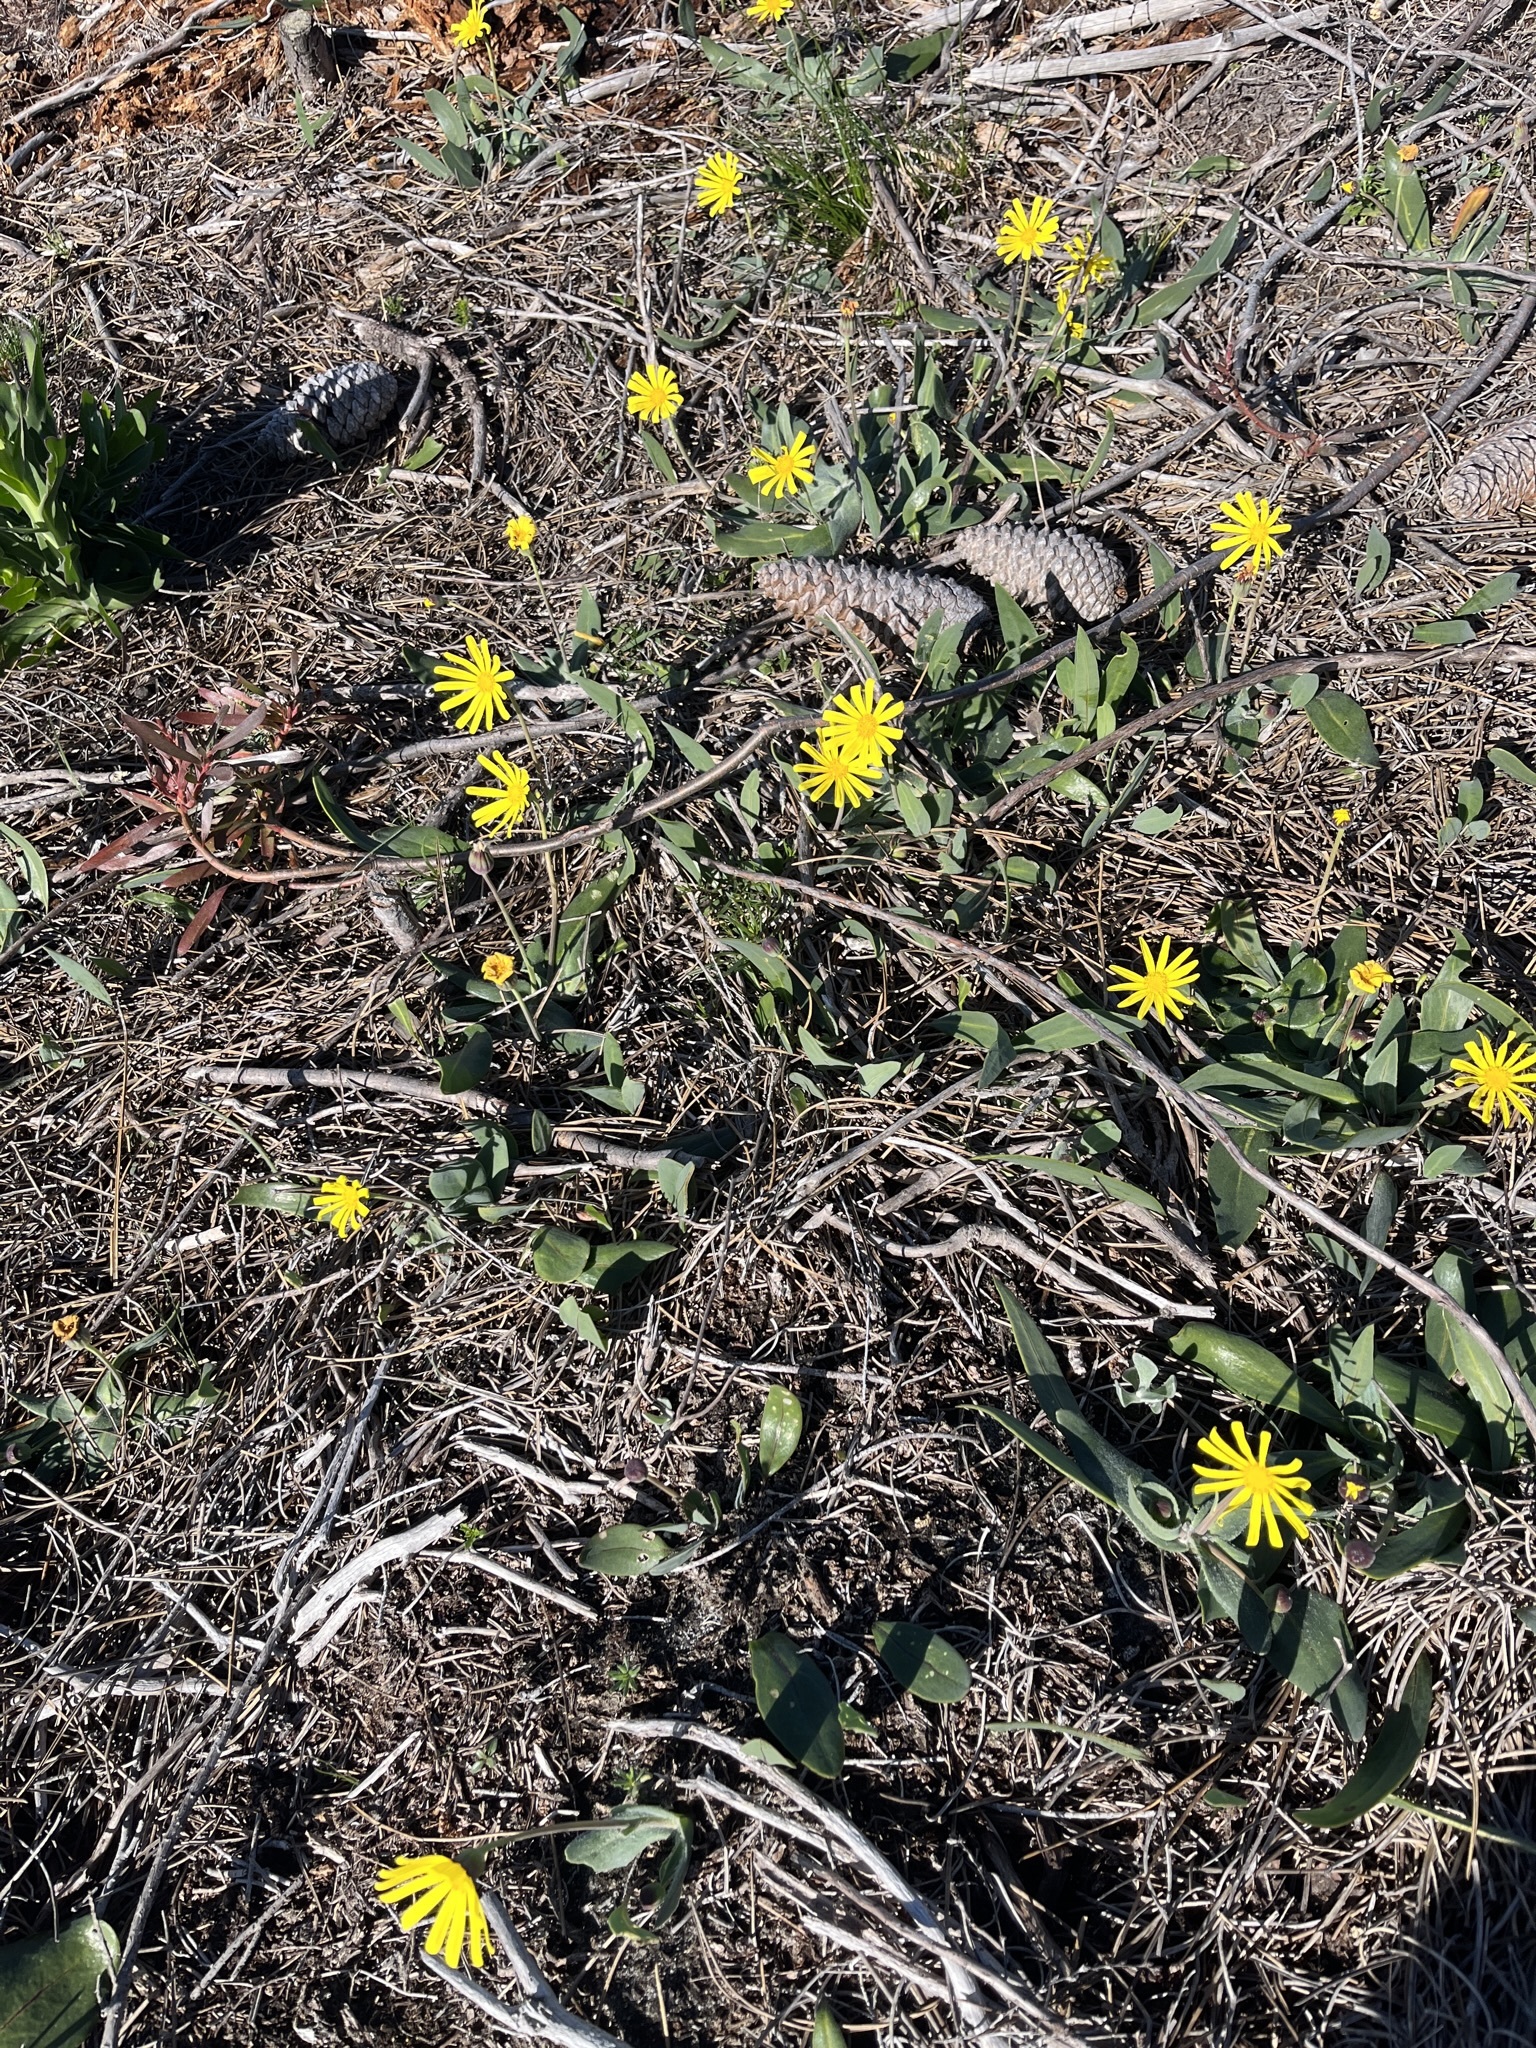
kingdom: Plantae
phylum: Tracheophyta
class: Magnoliopsida
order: Asterales
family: Asteraceae
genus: Othonna
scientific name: Othonna bulbosa
